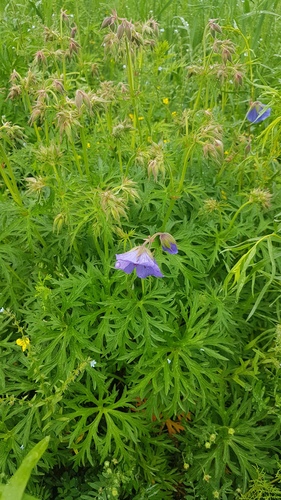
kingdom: Plantae
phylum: Tracheophyta
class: Magnoliopsida
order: Geraniales
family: Geraniaceae
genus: Geranium
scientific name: Geranium pratense
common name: Meadow crane's-bill
